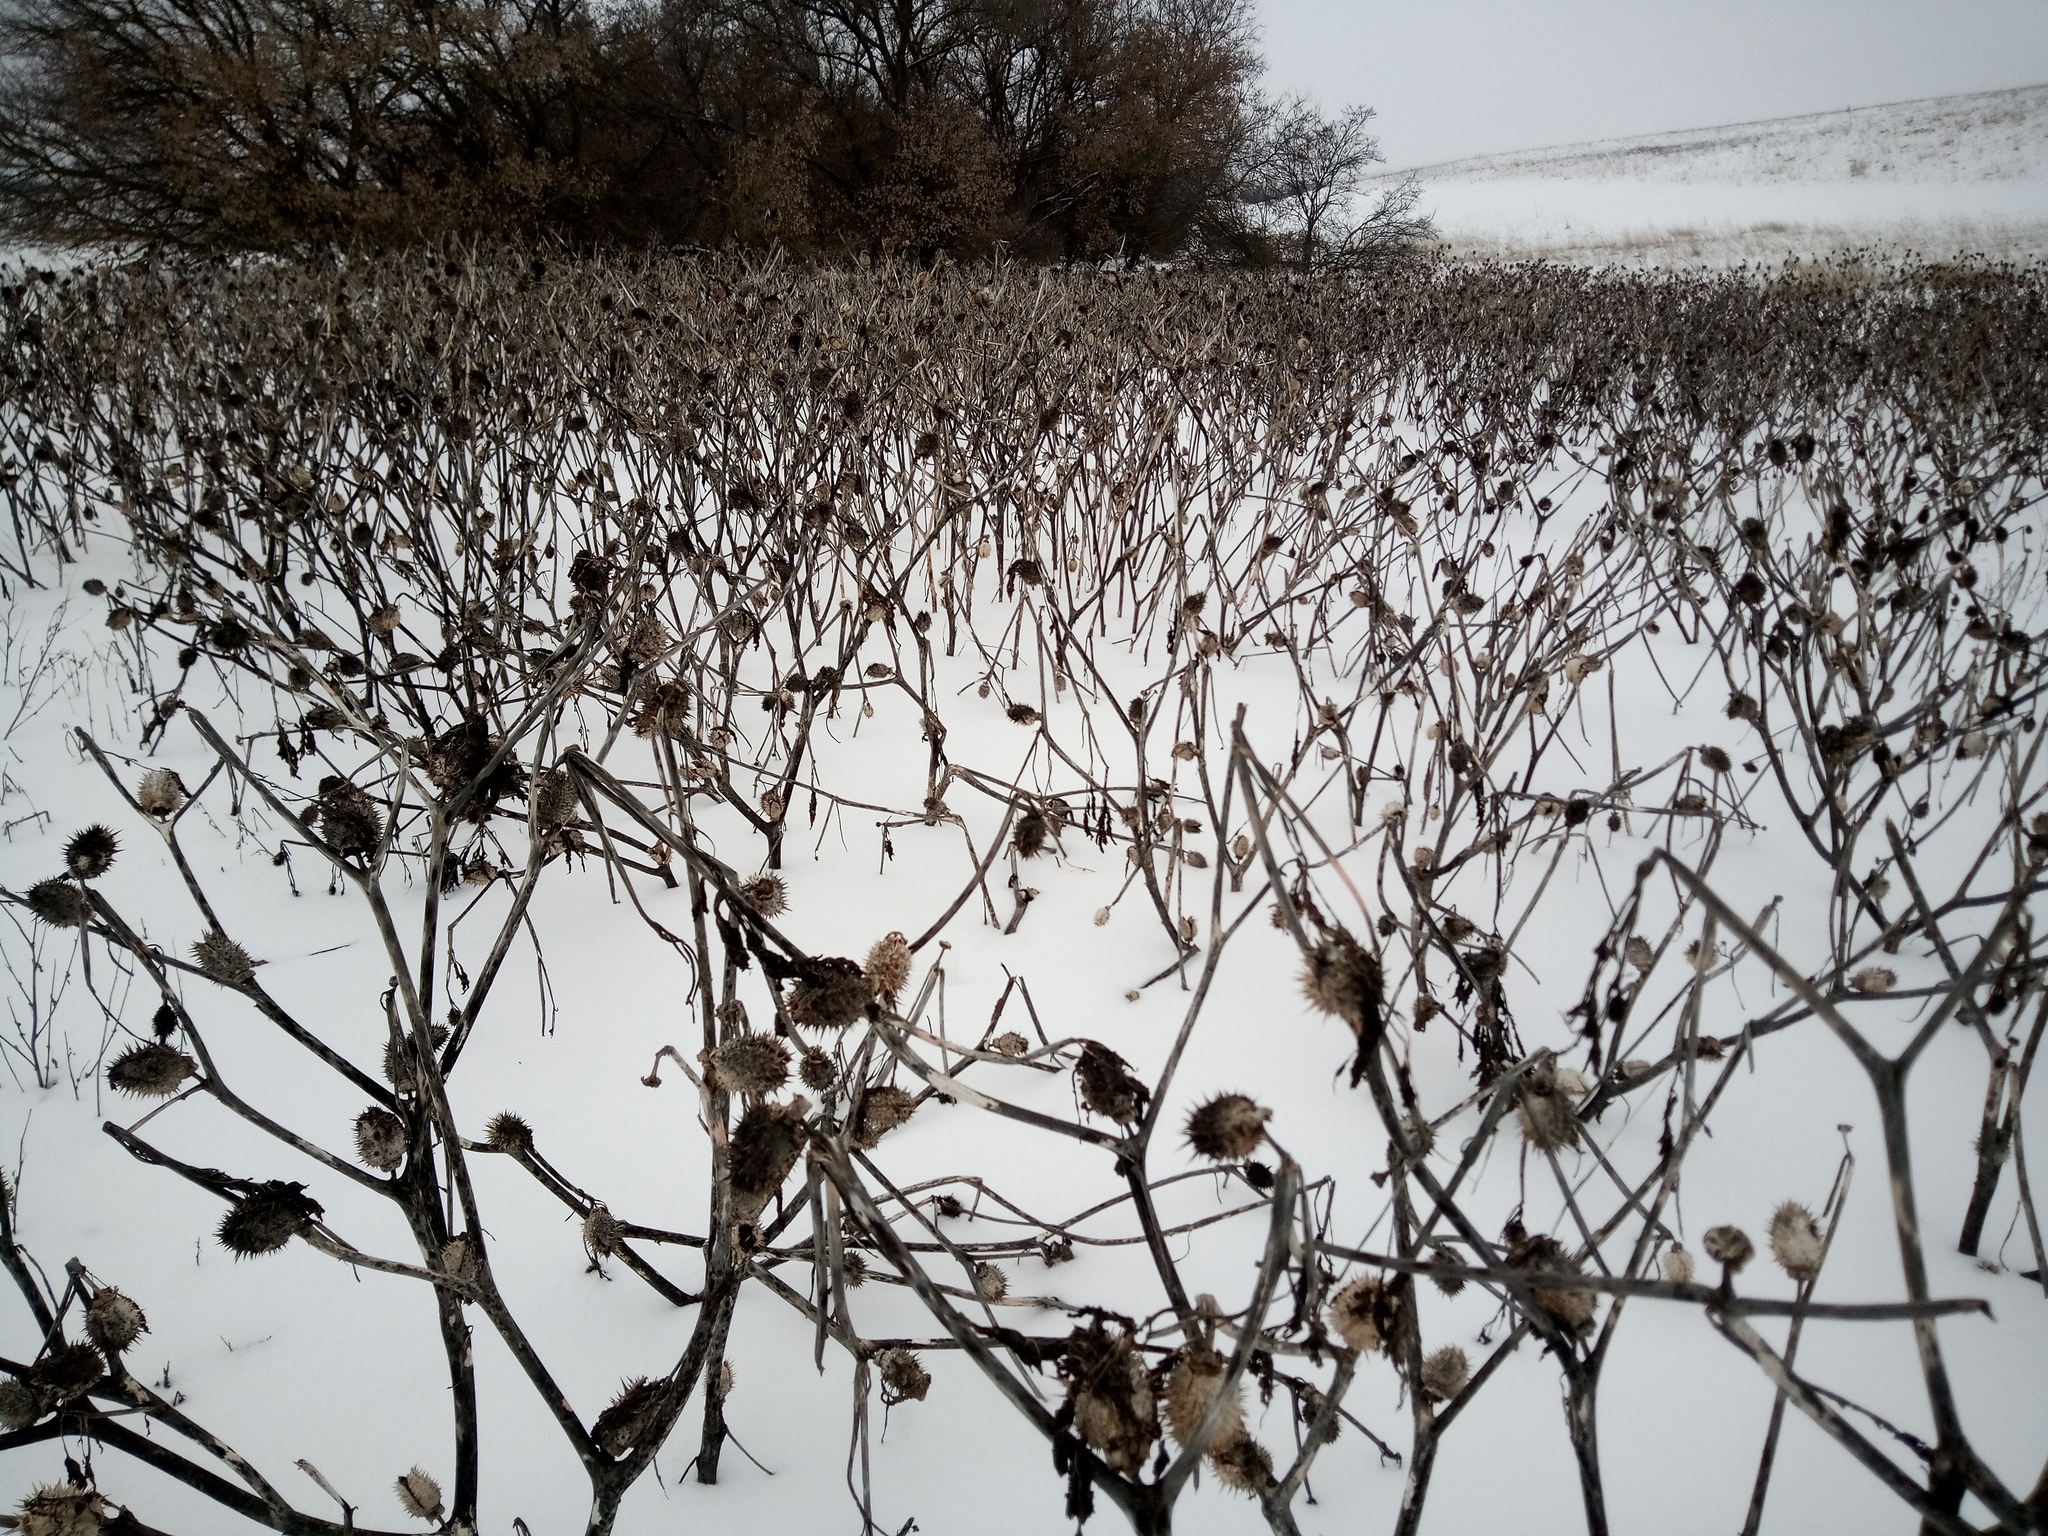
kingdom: Plantae
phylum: Tracheophyta
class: Magnoliopsida
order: Solanales
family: Solanaceae
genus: Datura
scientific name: Datura stramonium
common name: Thorn-apple
